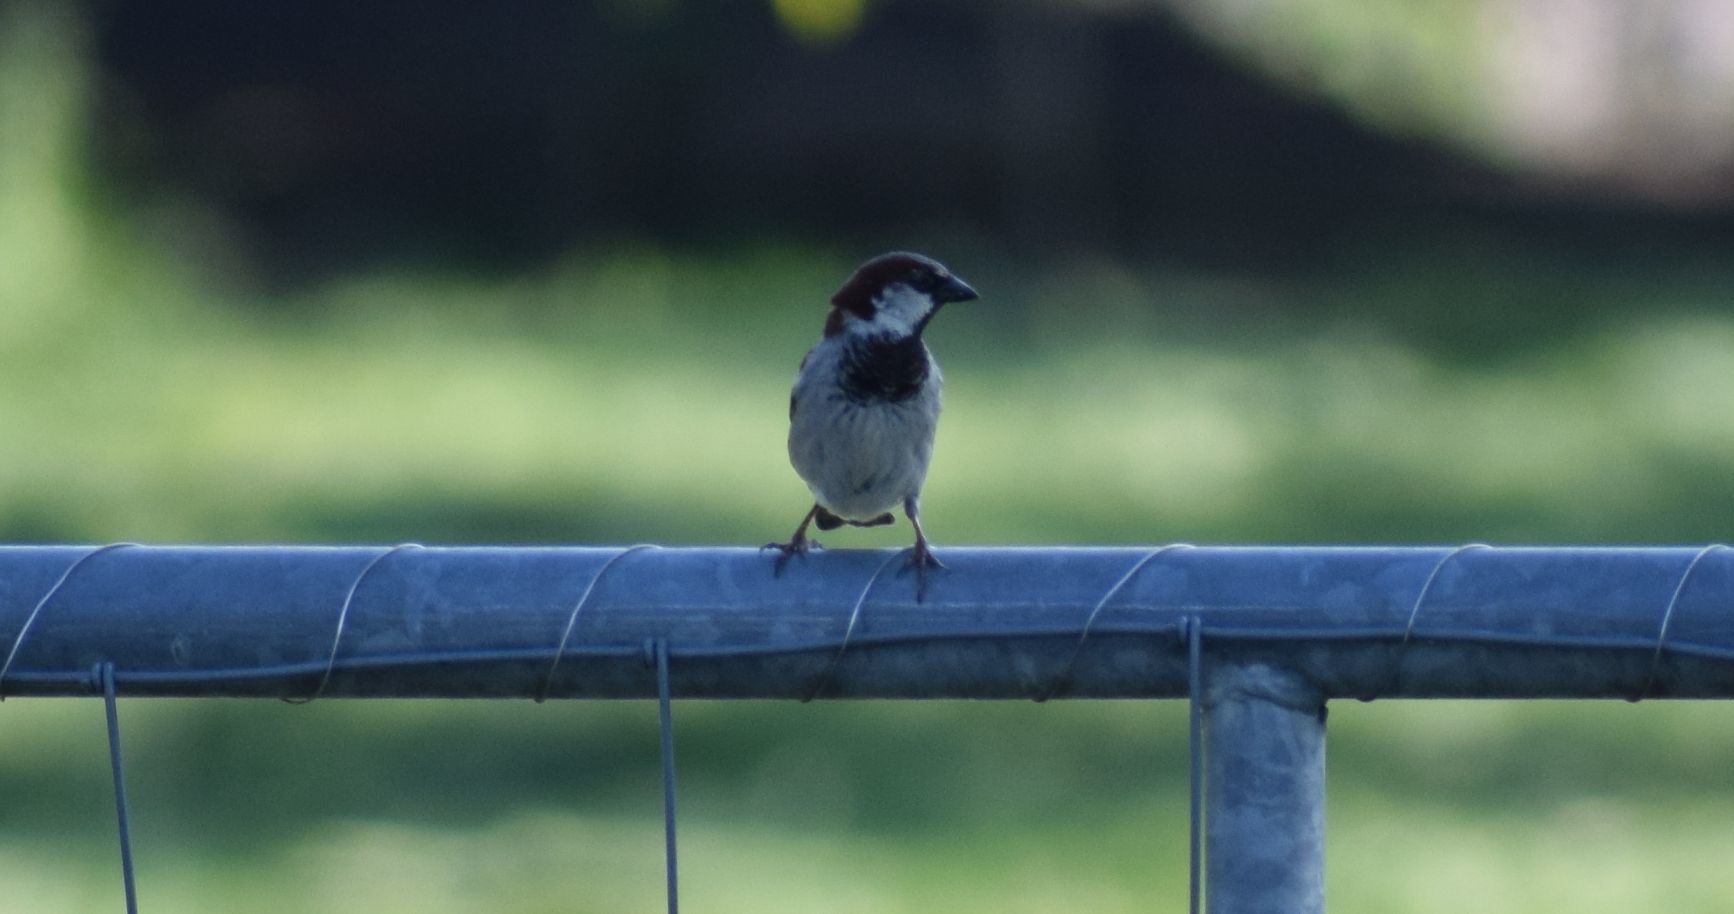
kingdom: Animalia
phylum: Chordata
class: Aves
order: Passeriformes
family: Passeridae
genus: Passer
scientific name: Passer domesticus
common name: House sparrow
